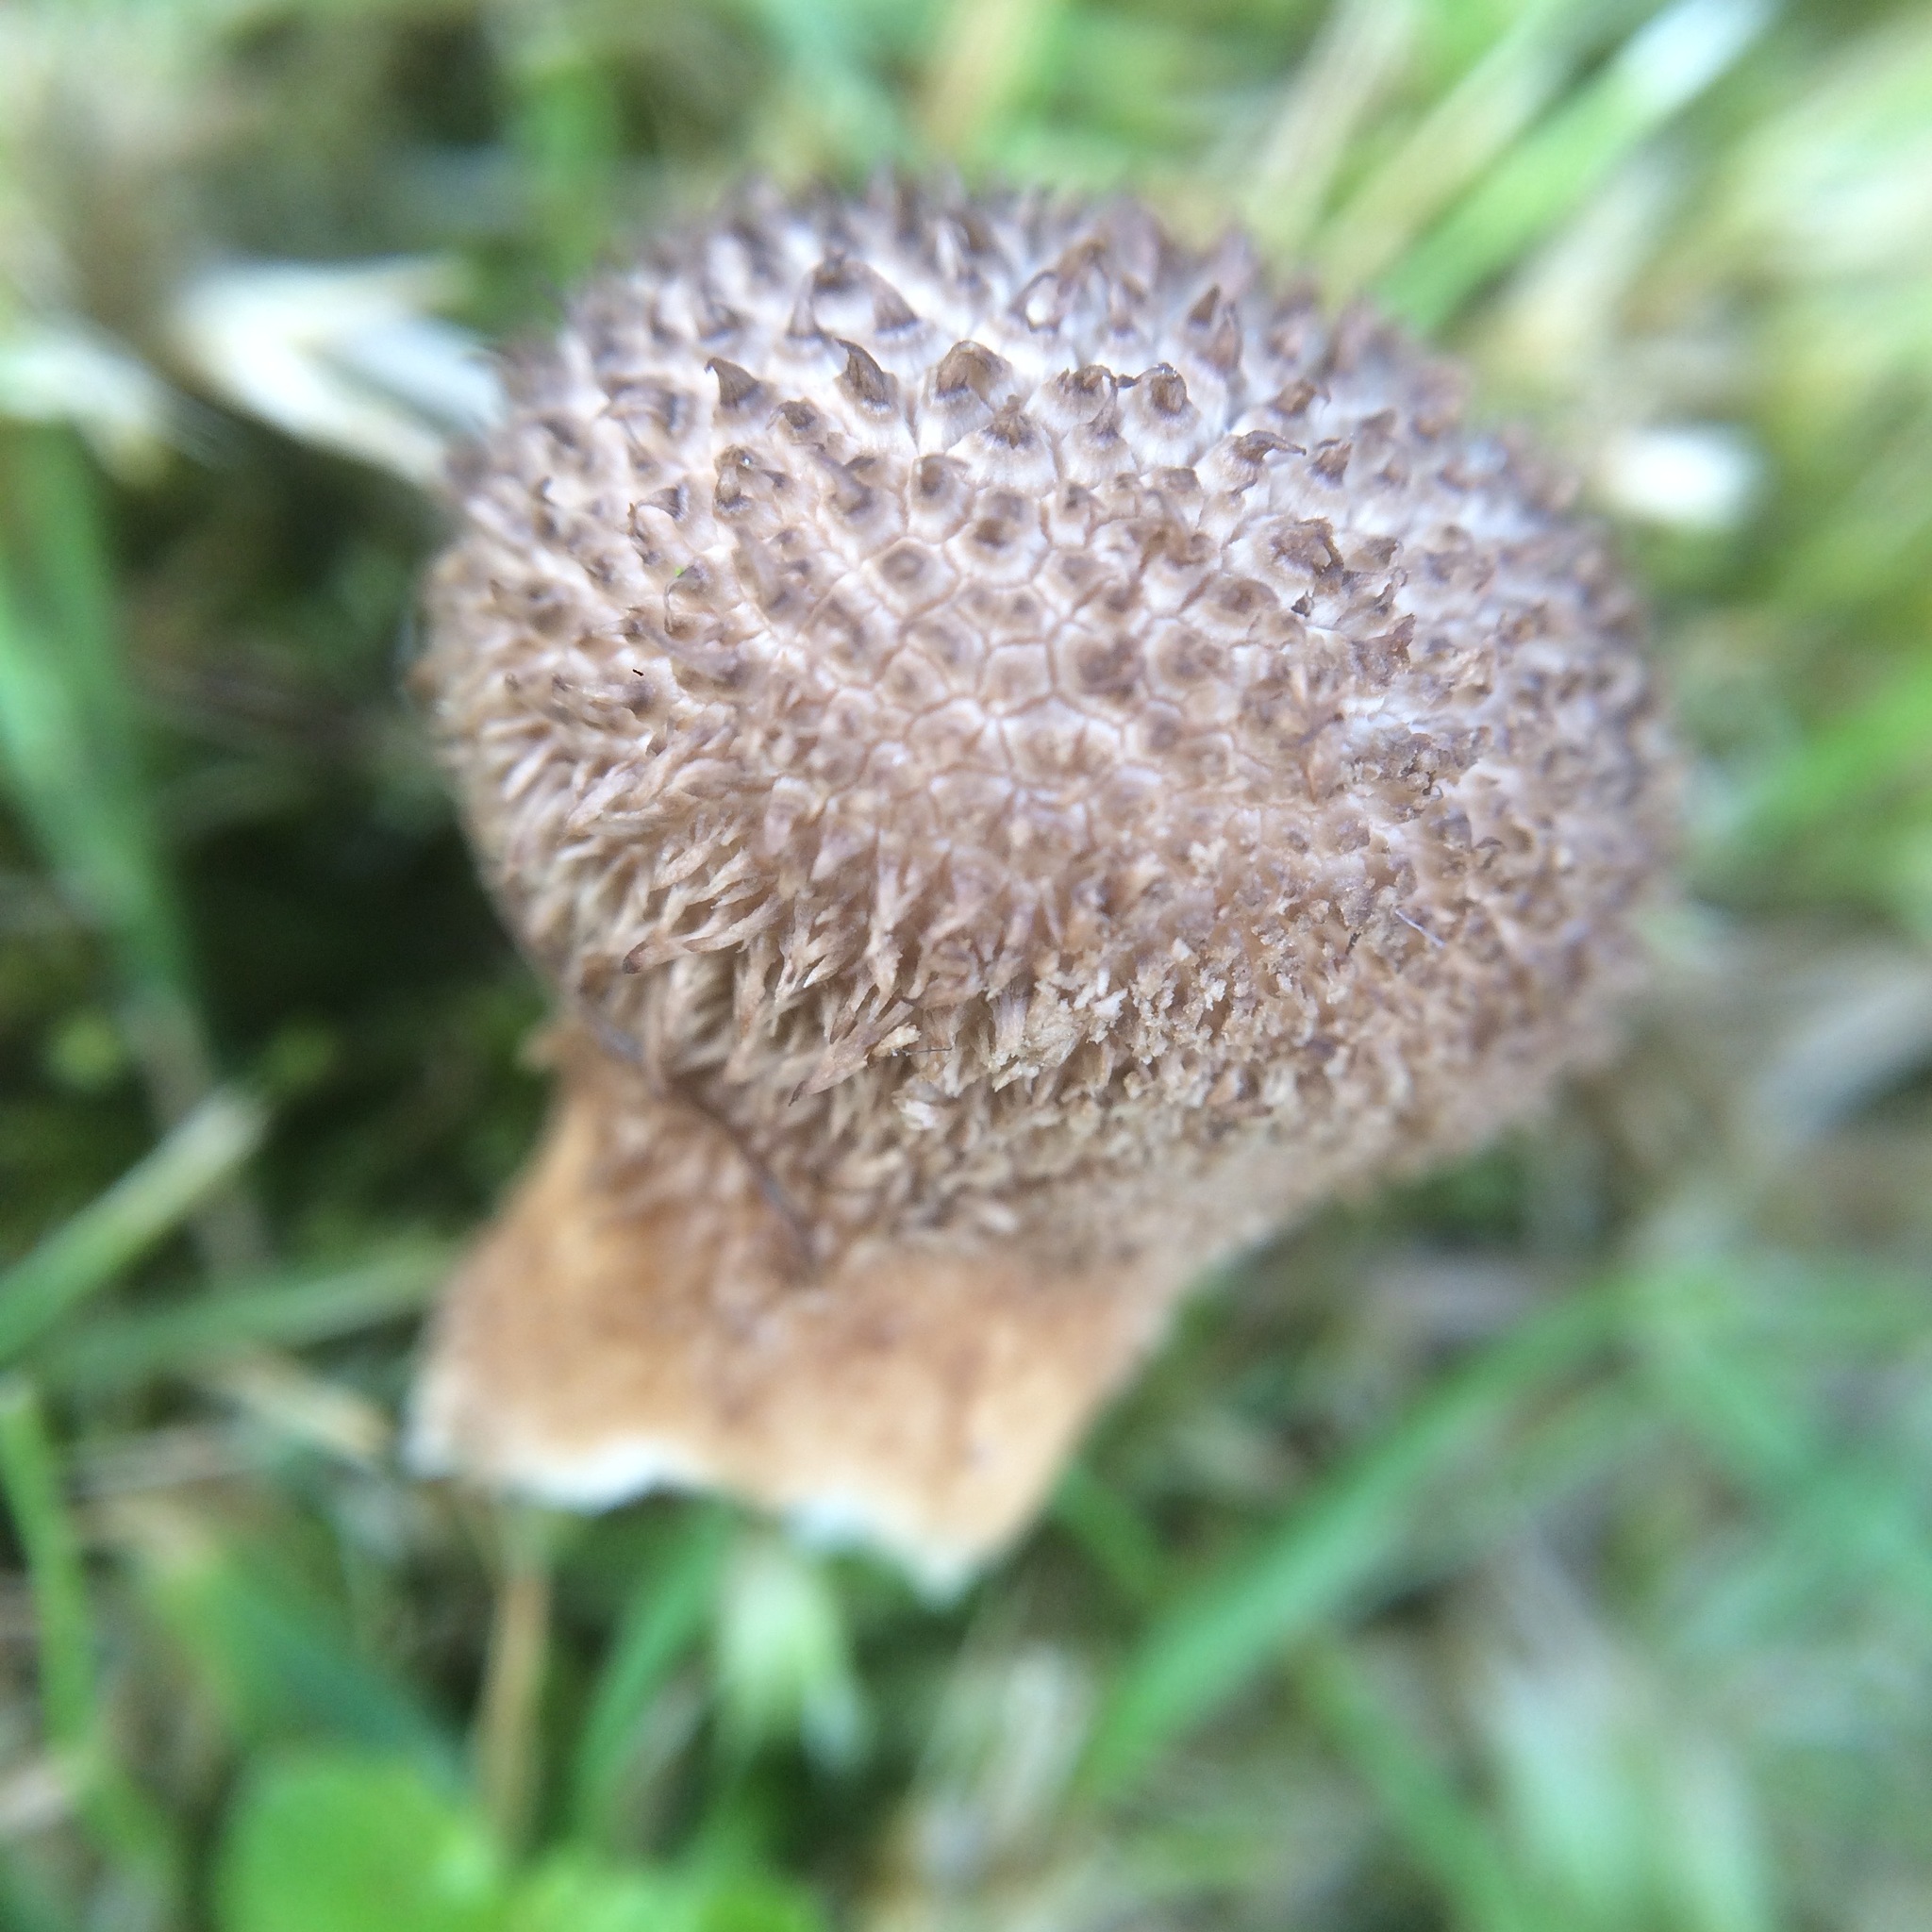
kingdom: Fungi
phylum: Basidiomycota
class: Agaricomycetes
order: Agaricales
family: Lycoperdaceae
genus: Lycoperdon
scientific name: Lycoperdon nigrescens
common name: Blackish puffball
